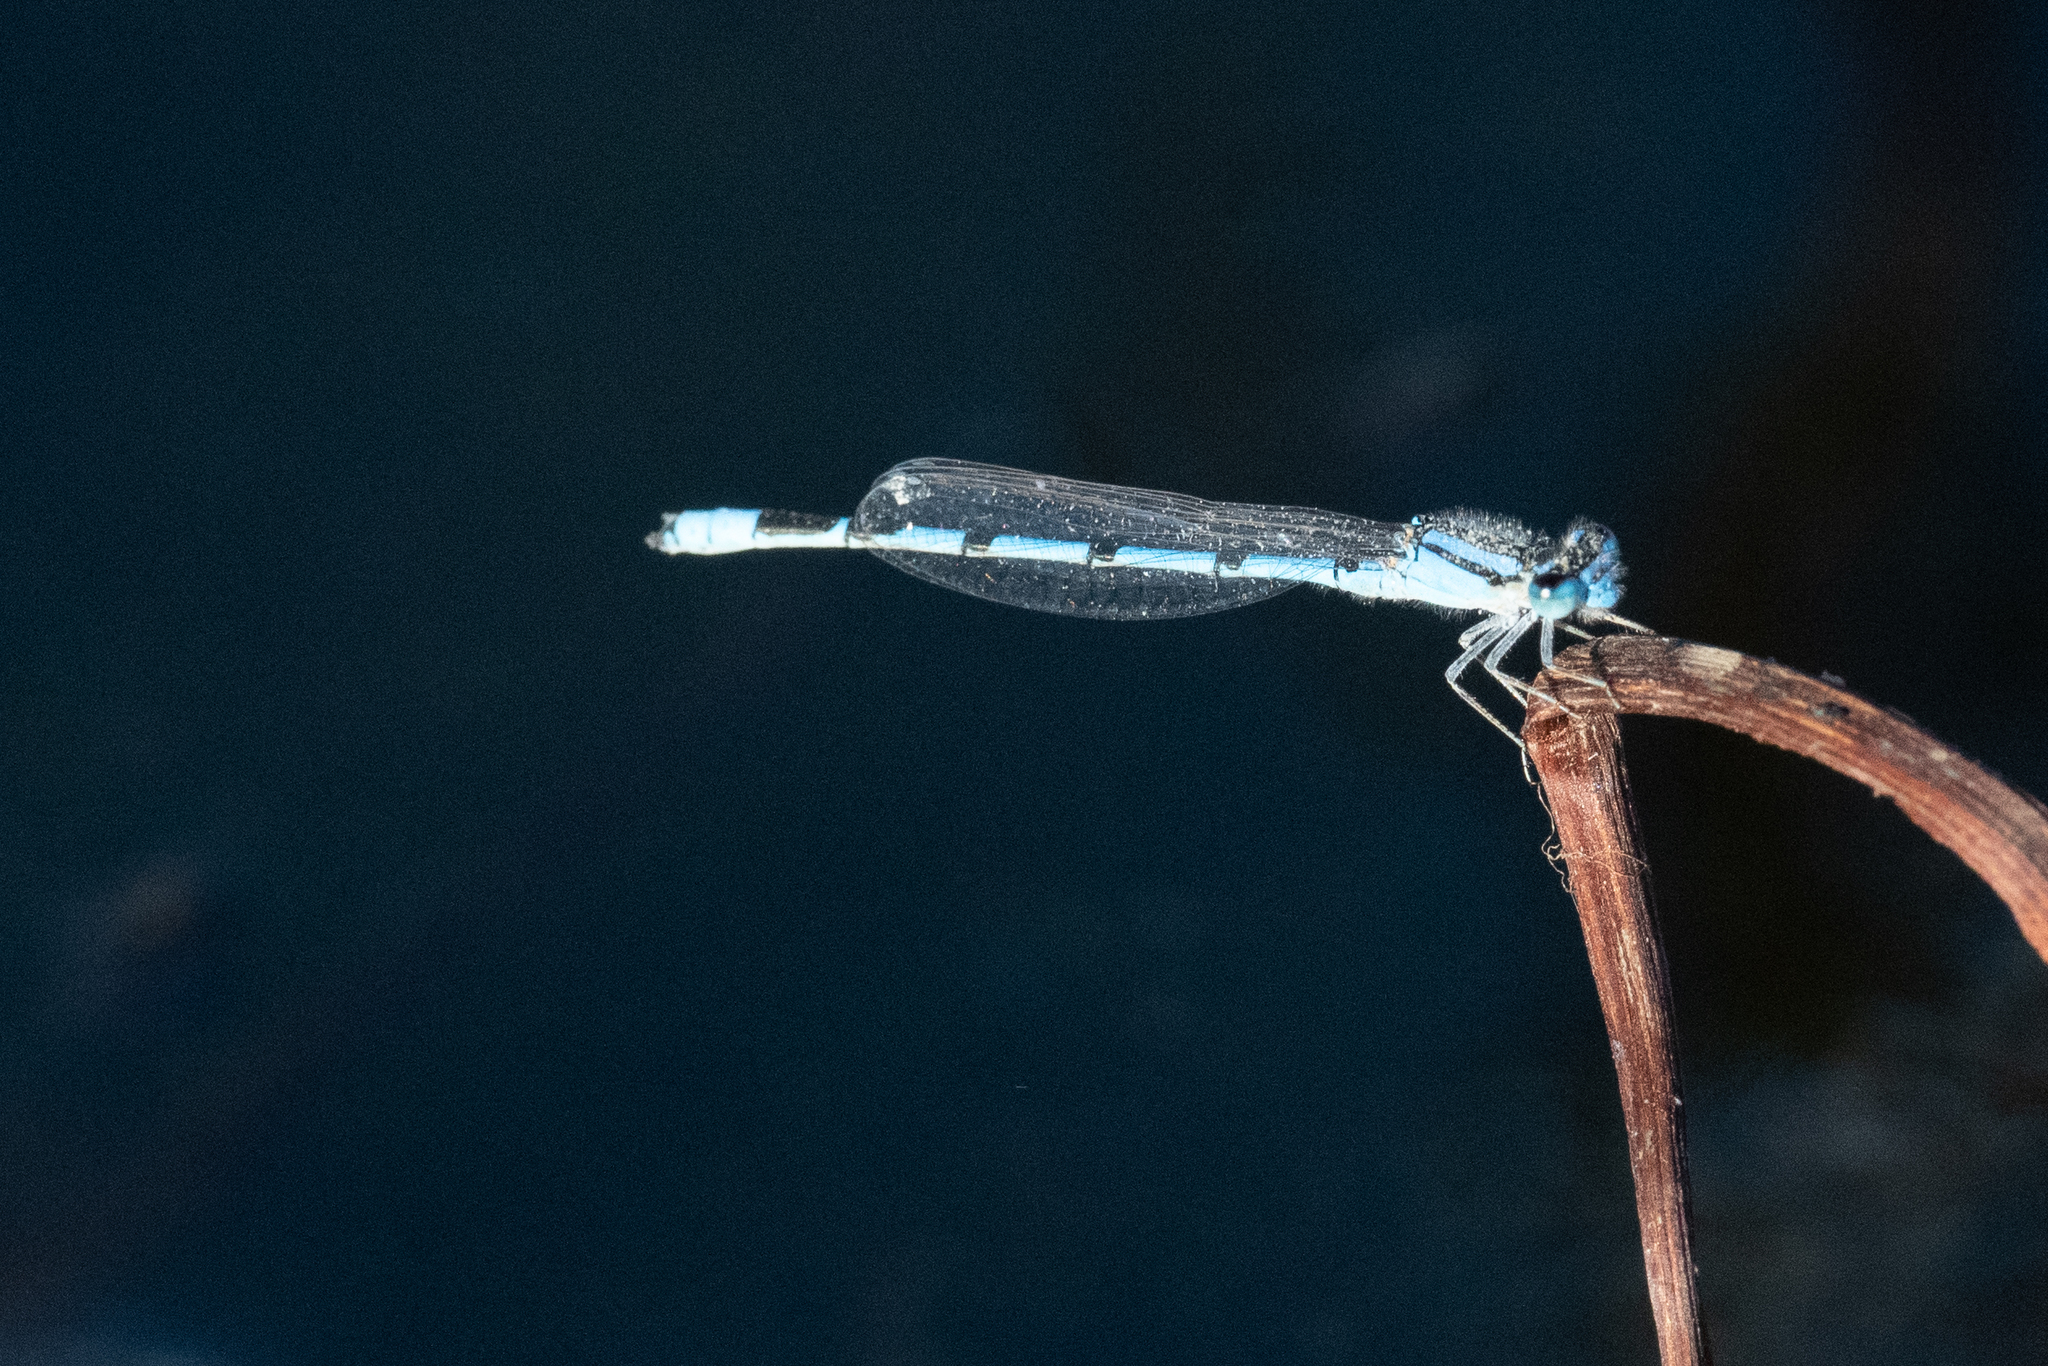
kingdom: Animalia
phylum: Arthropoda
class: Insecta
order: Odonata
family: Coenagrionidae
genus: Enallagma
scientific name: Enallagma civile
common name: Damselfly
